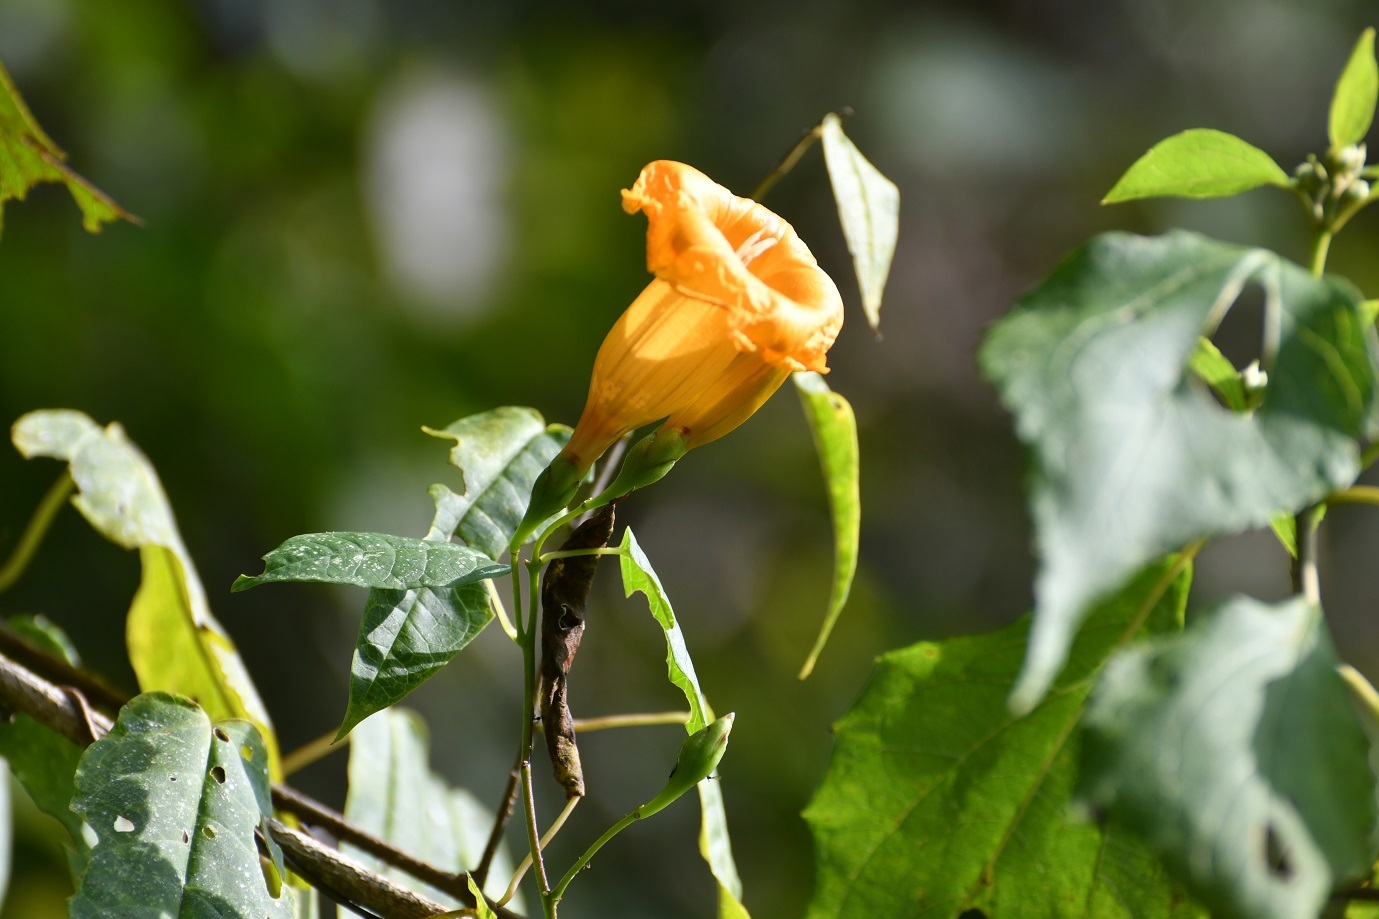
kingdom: Plantae
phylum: Tracheophyta
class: Magnoliopsida
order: Solanales
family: Convolvulaceae
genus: Ipomoea
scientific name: Ipomoea aurantiaca
